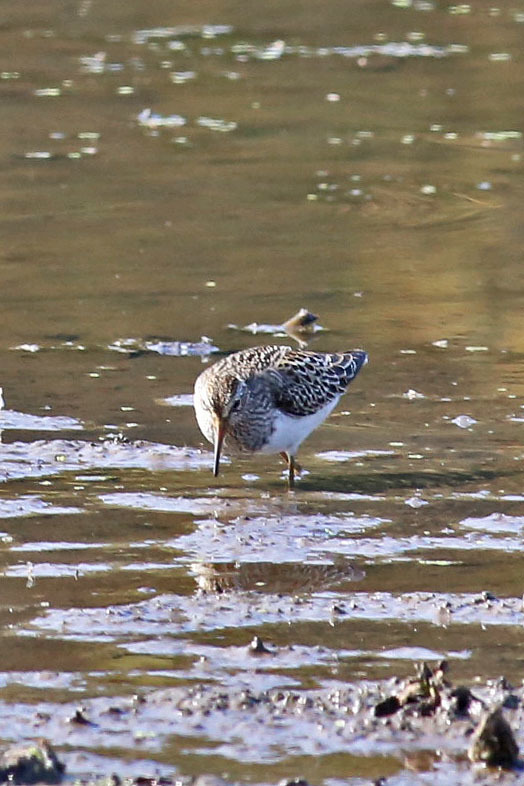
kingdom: Animalia
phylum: Chordata
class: Aves
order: Charadriiformes
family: Scolopacidae
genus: Calidris
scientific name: Calidris melanotos
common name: Pectoral sandpiper
